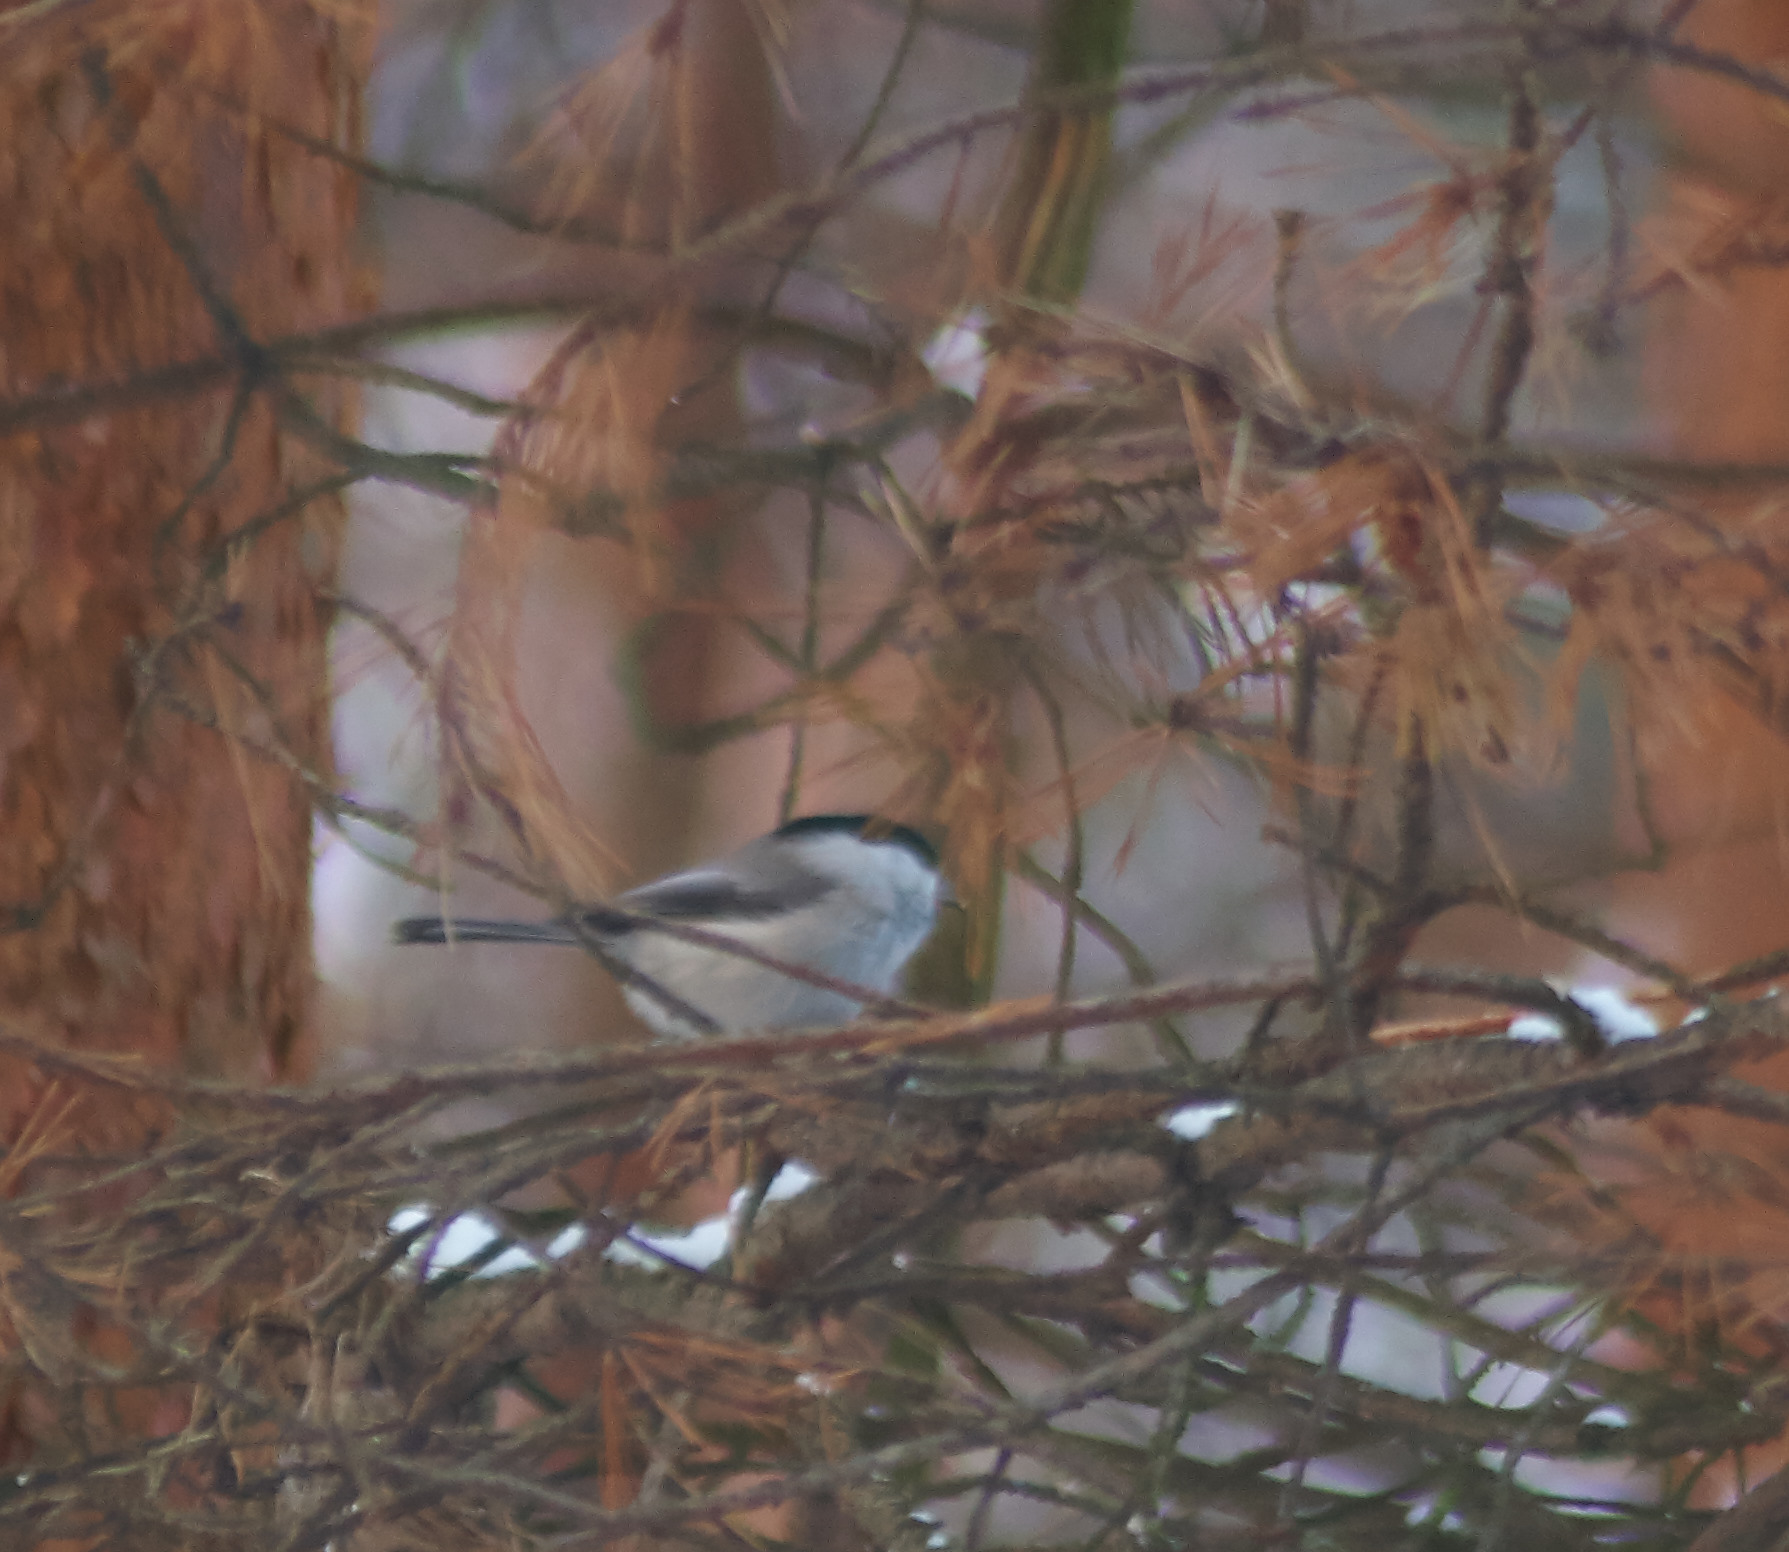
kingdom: Animalia
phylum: Chordata
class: Aves
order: Passeriformes
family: Paridae
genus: Poecile
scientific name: Poecile montanus
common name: Willow tit
